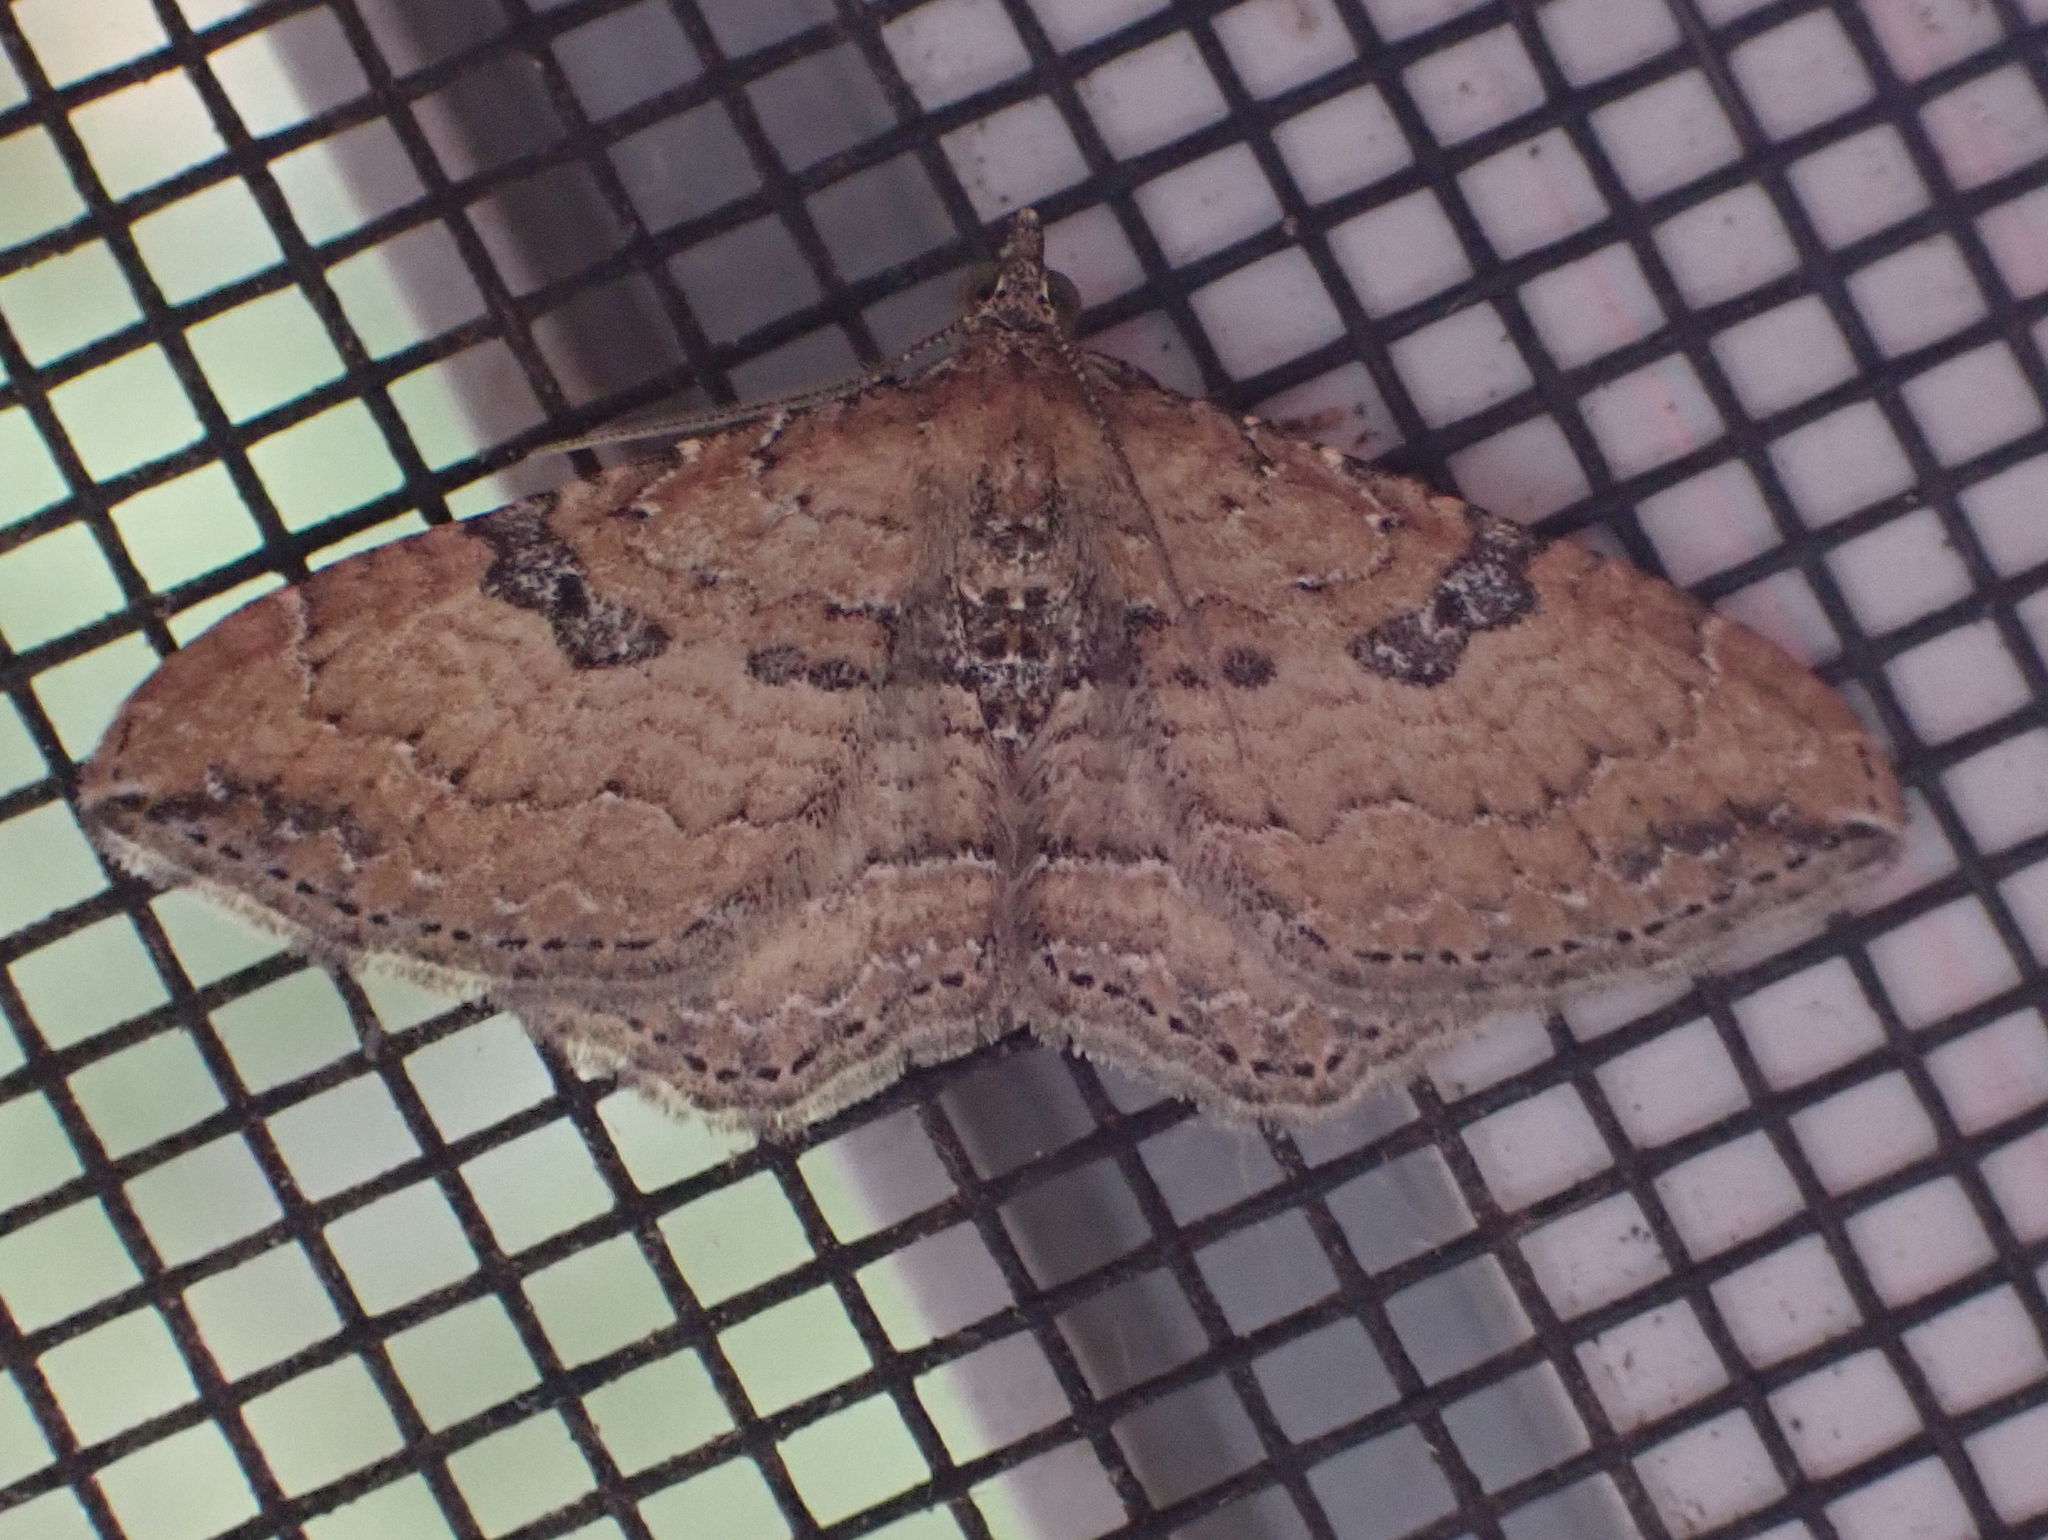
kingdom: Animalia
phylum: Arthropoda
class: Insecta
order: Lepidoptera
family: Geometridae
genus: Orthonama
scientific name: Orthonama obstipata
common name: The gem
